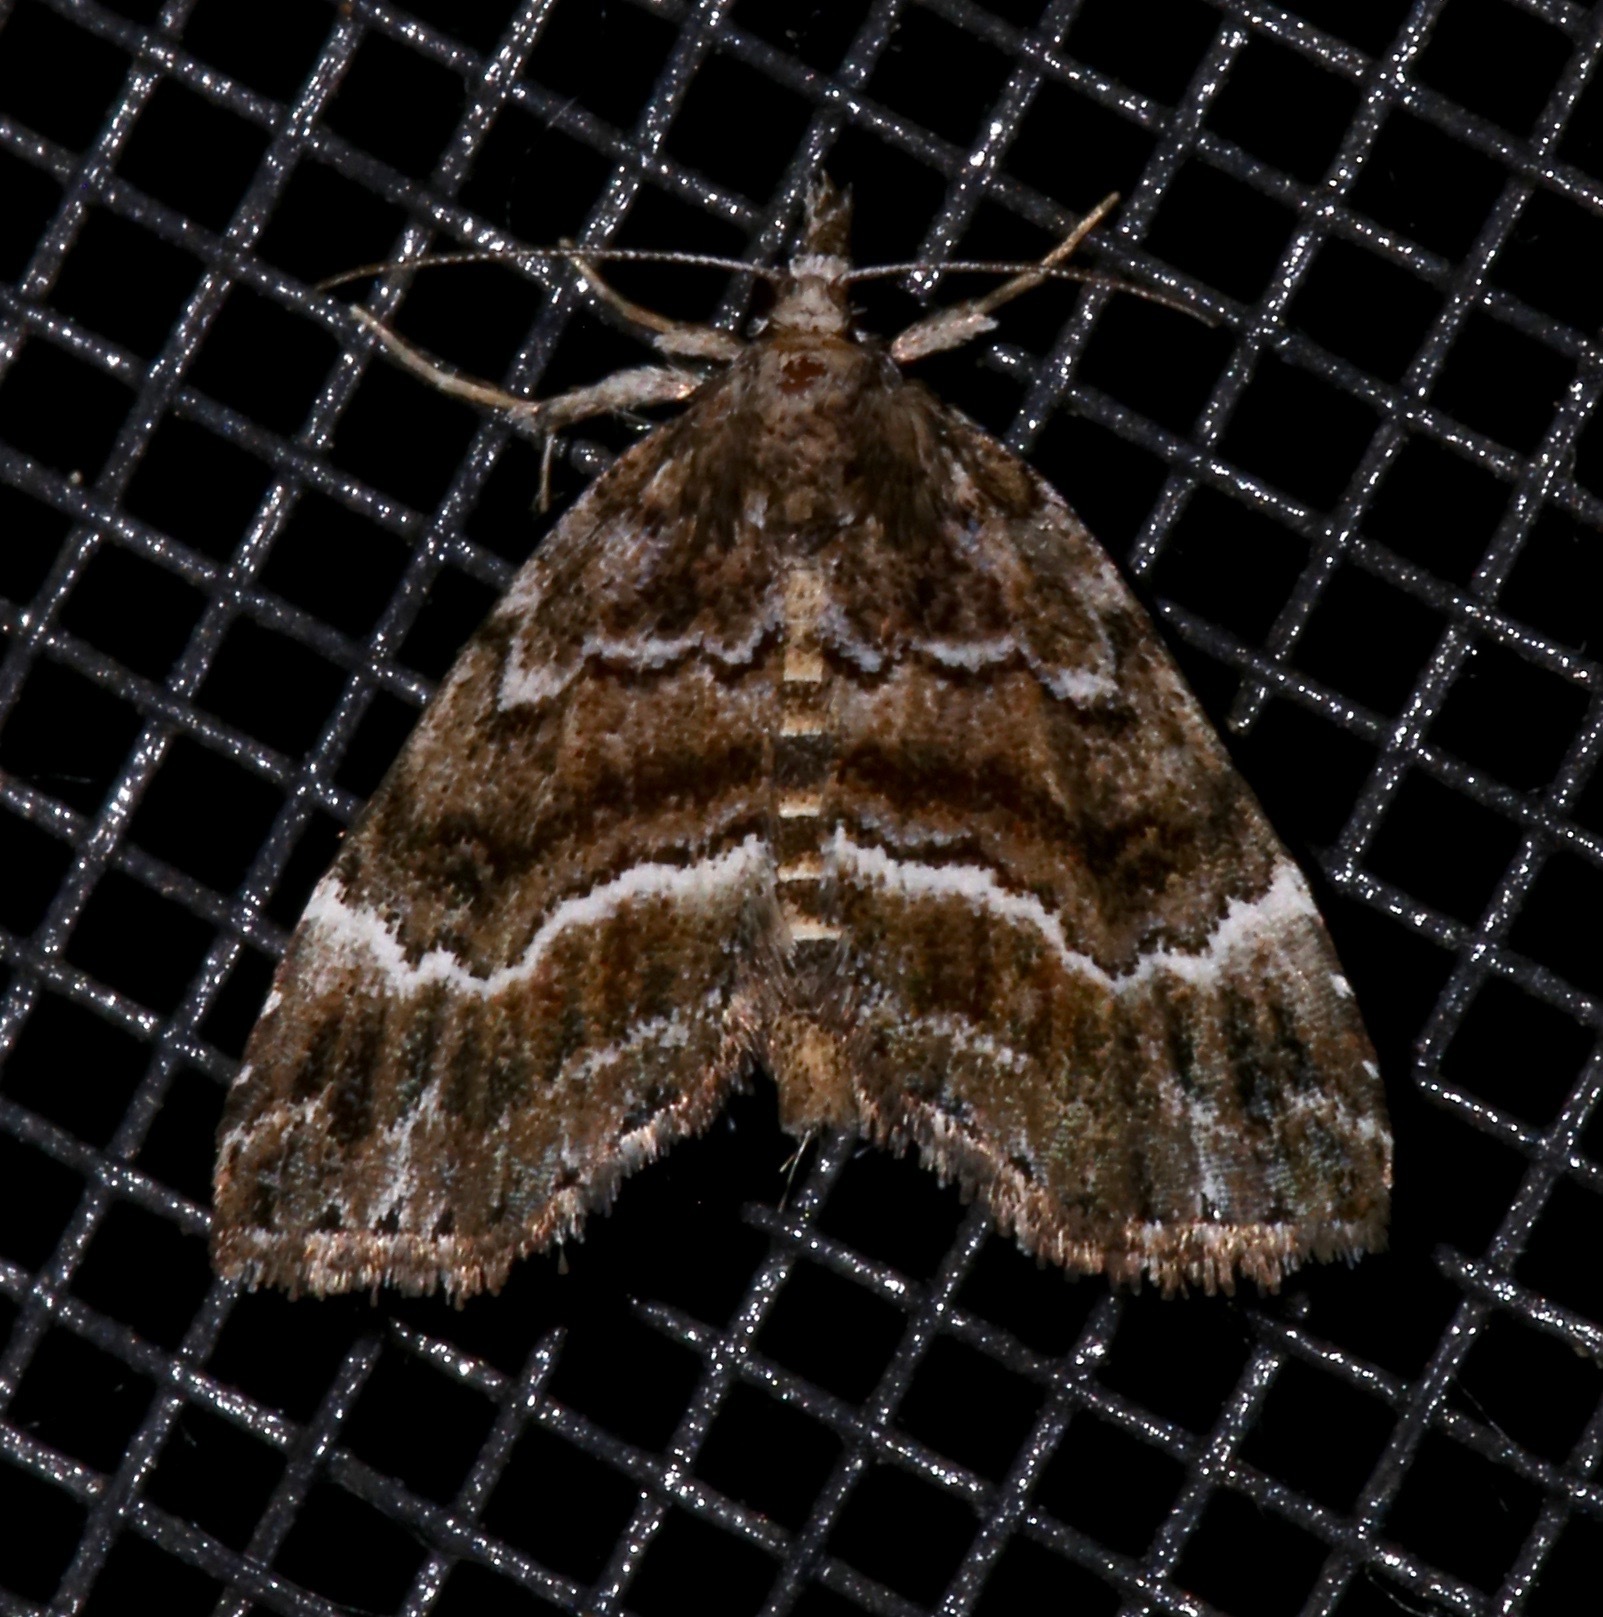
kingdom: Animalia
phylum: Arthropoda
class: Insecta
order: Lepidoptera
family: Erebidae
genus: Cutina
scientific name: Cutina arcuata
